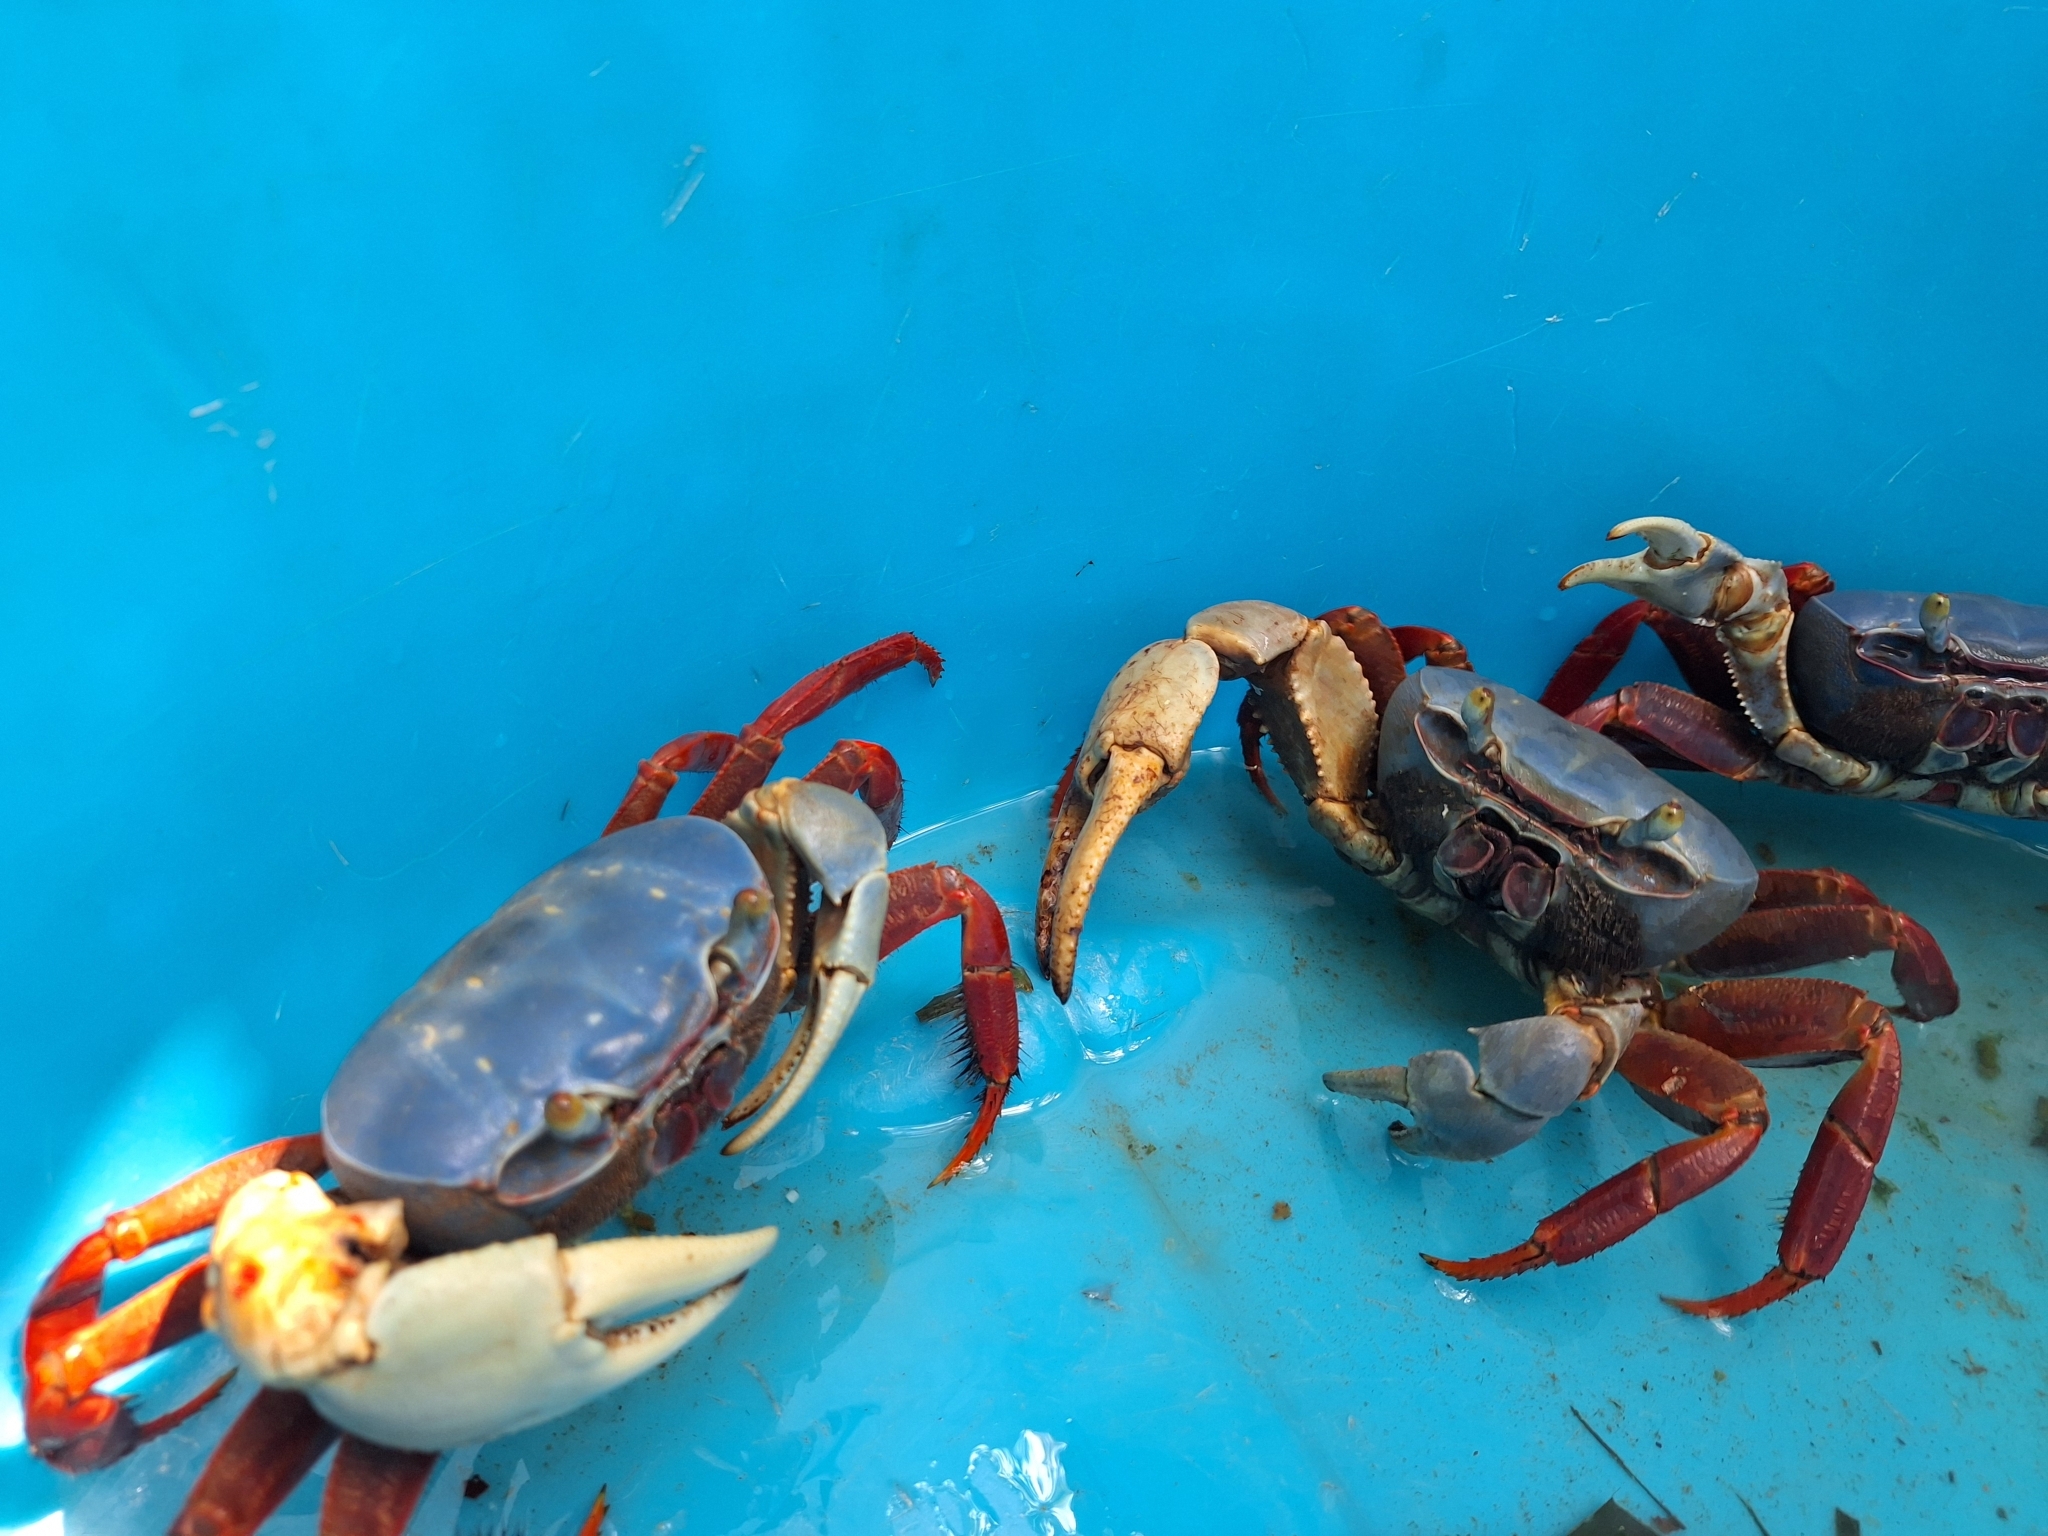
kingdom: Animalia
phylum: Arthropoda
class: Malacostraca
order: Decapoda
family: Gecarcinidae
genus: Cardisoma
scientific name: Cardisoma crassum
